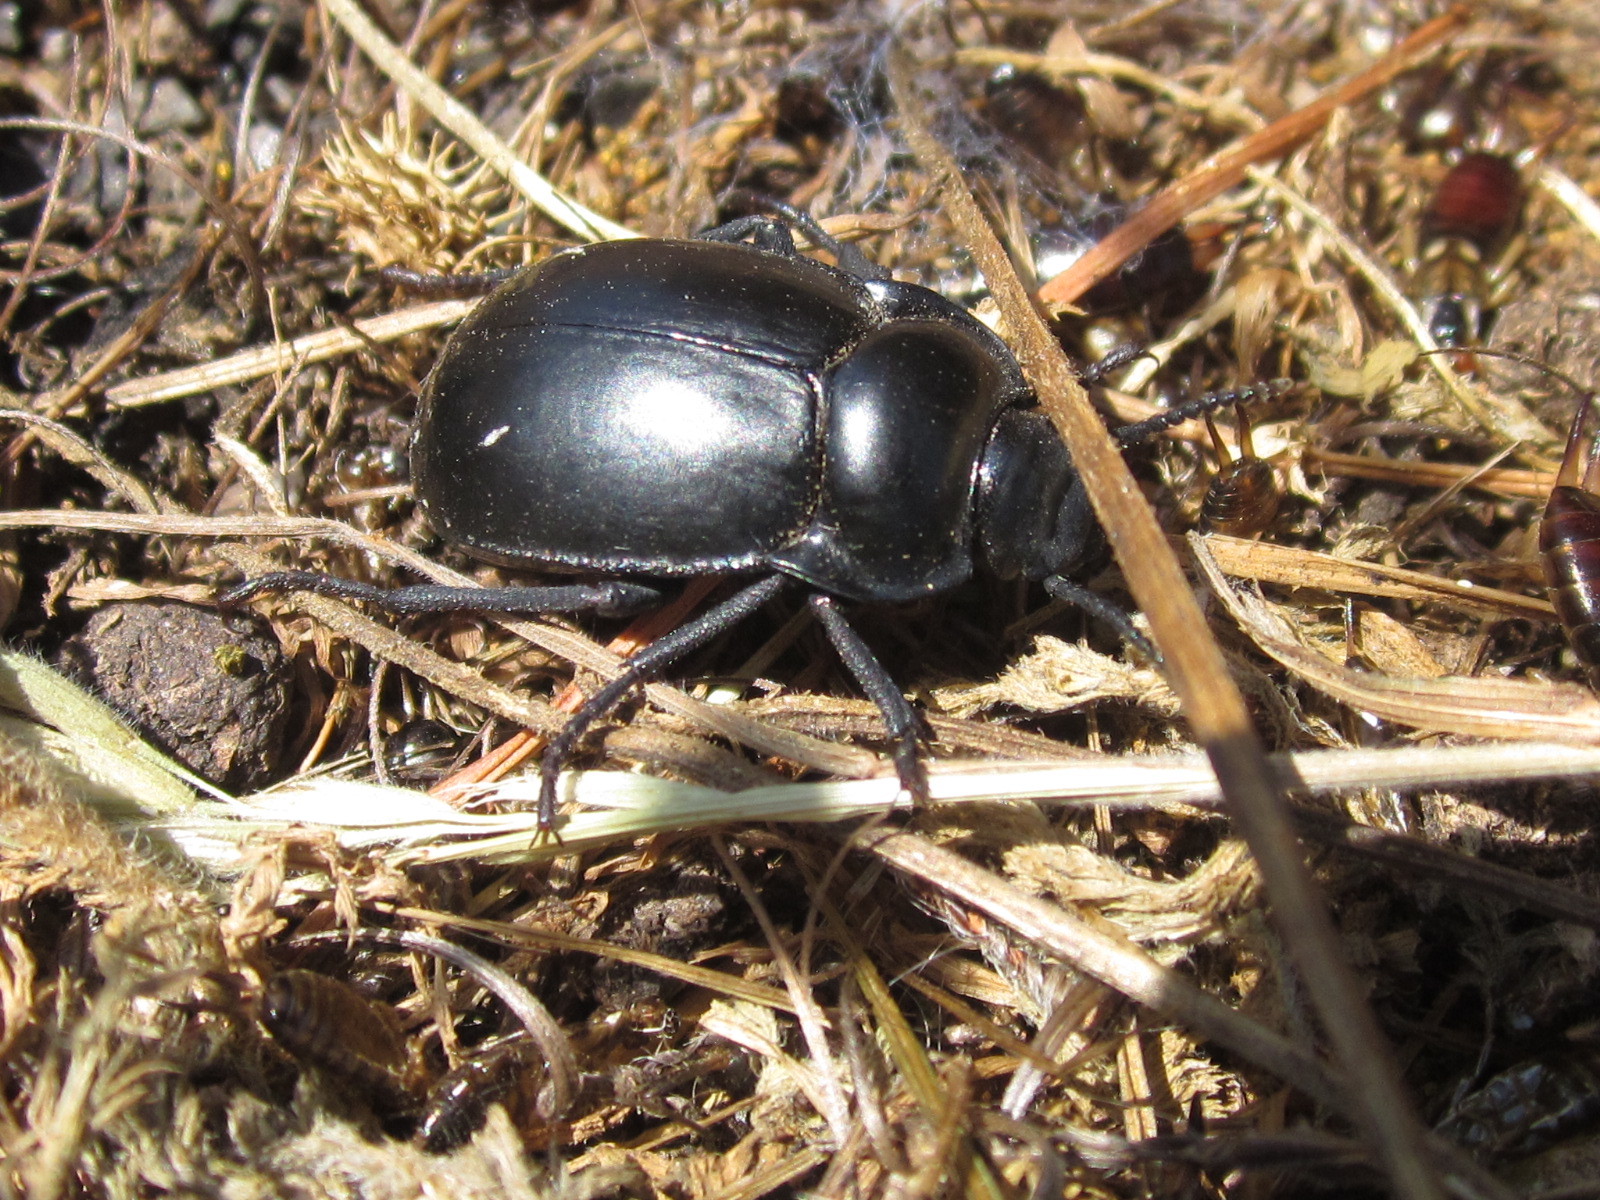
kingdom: Animalia
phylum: Arthropoda
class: Insecta
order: Coleoptera
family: Tenebrionidae
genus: Gyriosomus
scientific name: Gyriosomus
